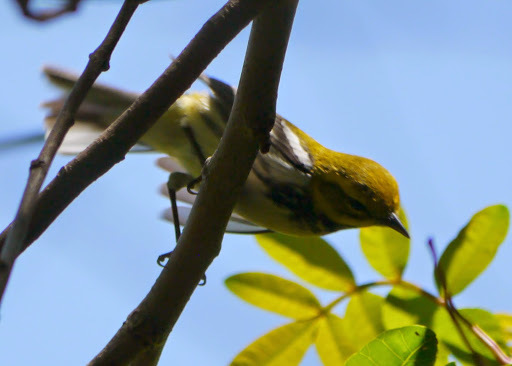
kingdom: Animalia
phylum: Chordata
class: Aves
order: Passeriformes
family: Parulidae
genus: Setophaga
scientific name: Setophaga virens
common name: Black-throated green warbler
